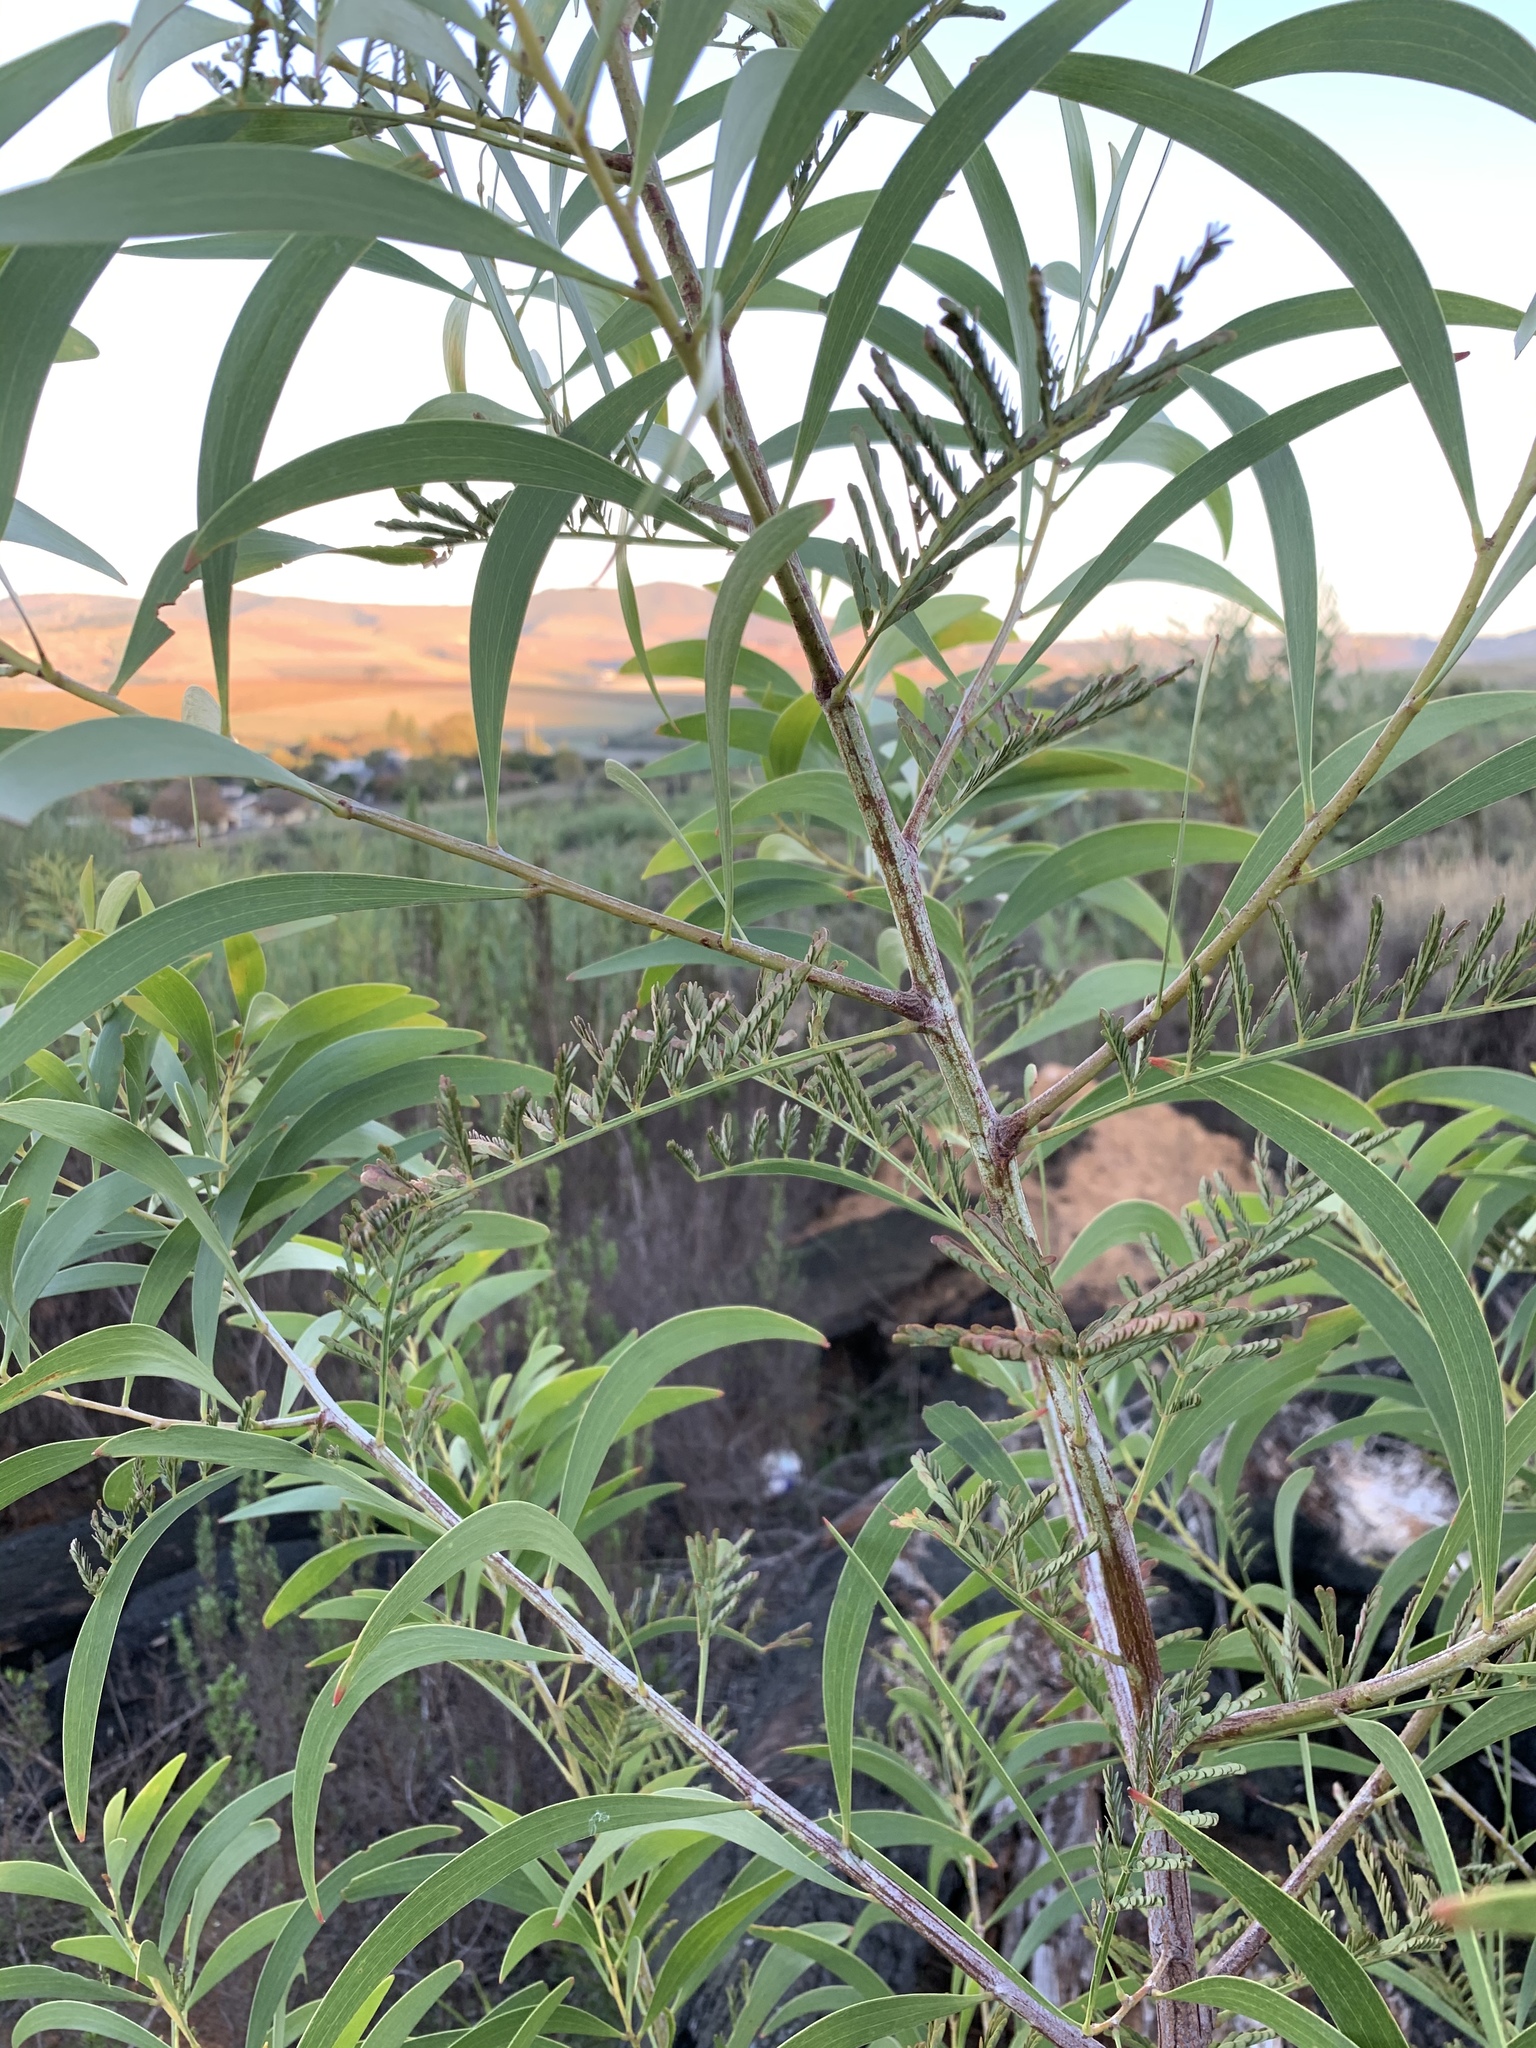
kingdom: Plantae
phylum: Tracheophyta
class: Magnoliopsida
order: Fabales
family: Fabaceae
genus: Acacia
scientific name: Acacia implexa
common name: Black wattle
